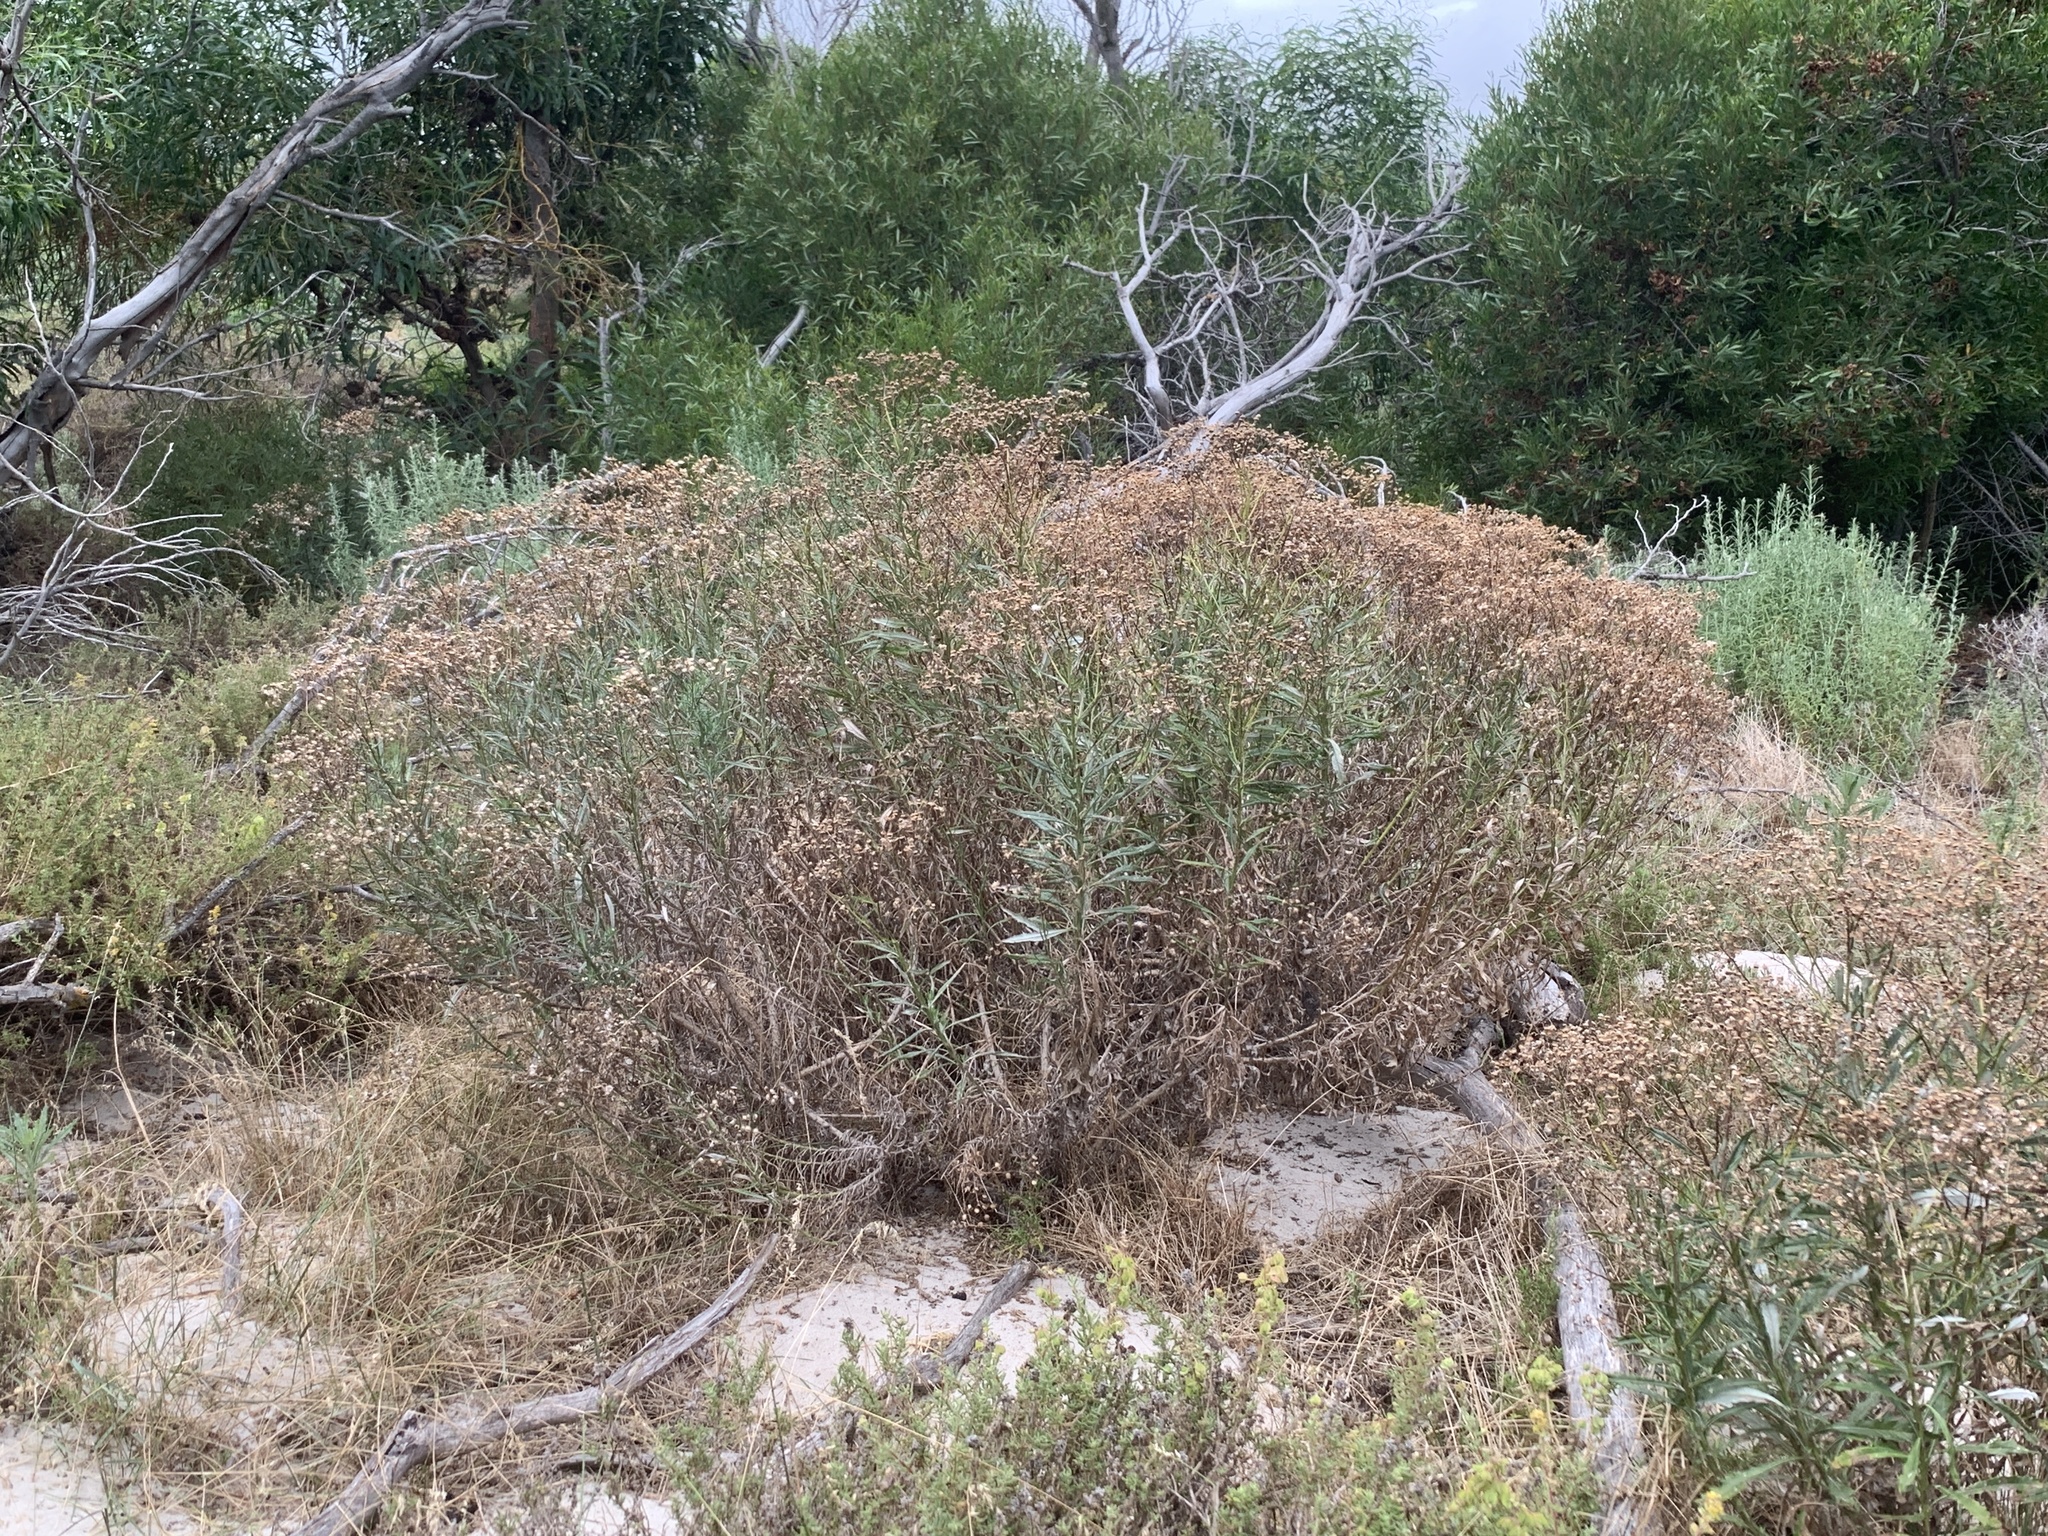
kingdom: Plantae
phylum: Tracheophyta
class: Magnoliopsida
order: Asterales
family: Asteraceae
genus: Senecio
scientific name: Senecio pterophorus
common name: Shoddy ragwort
